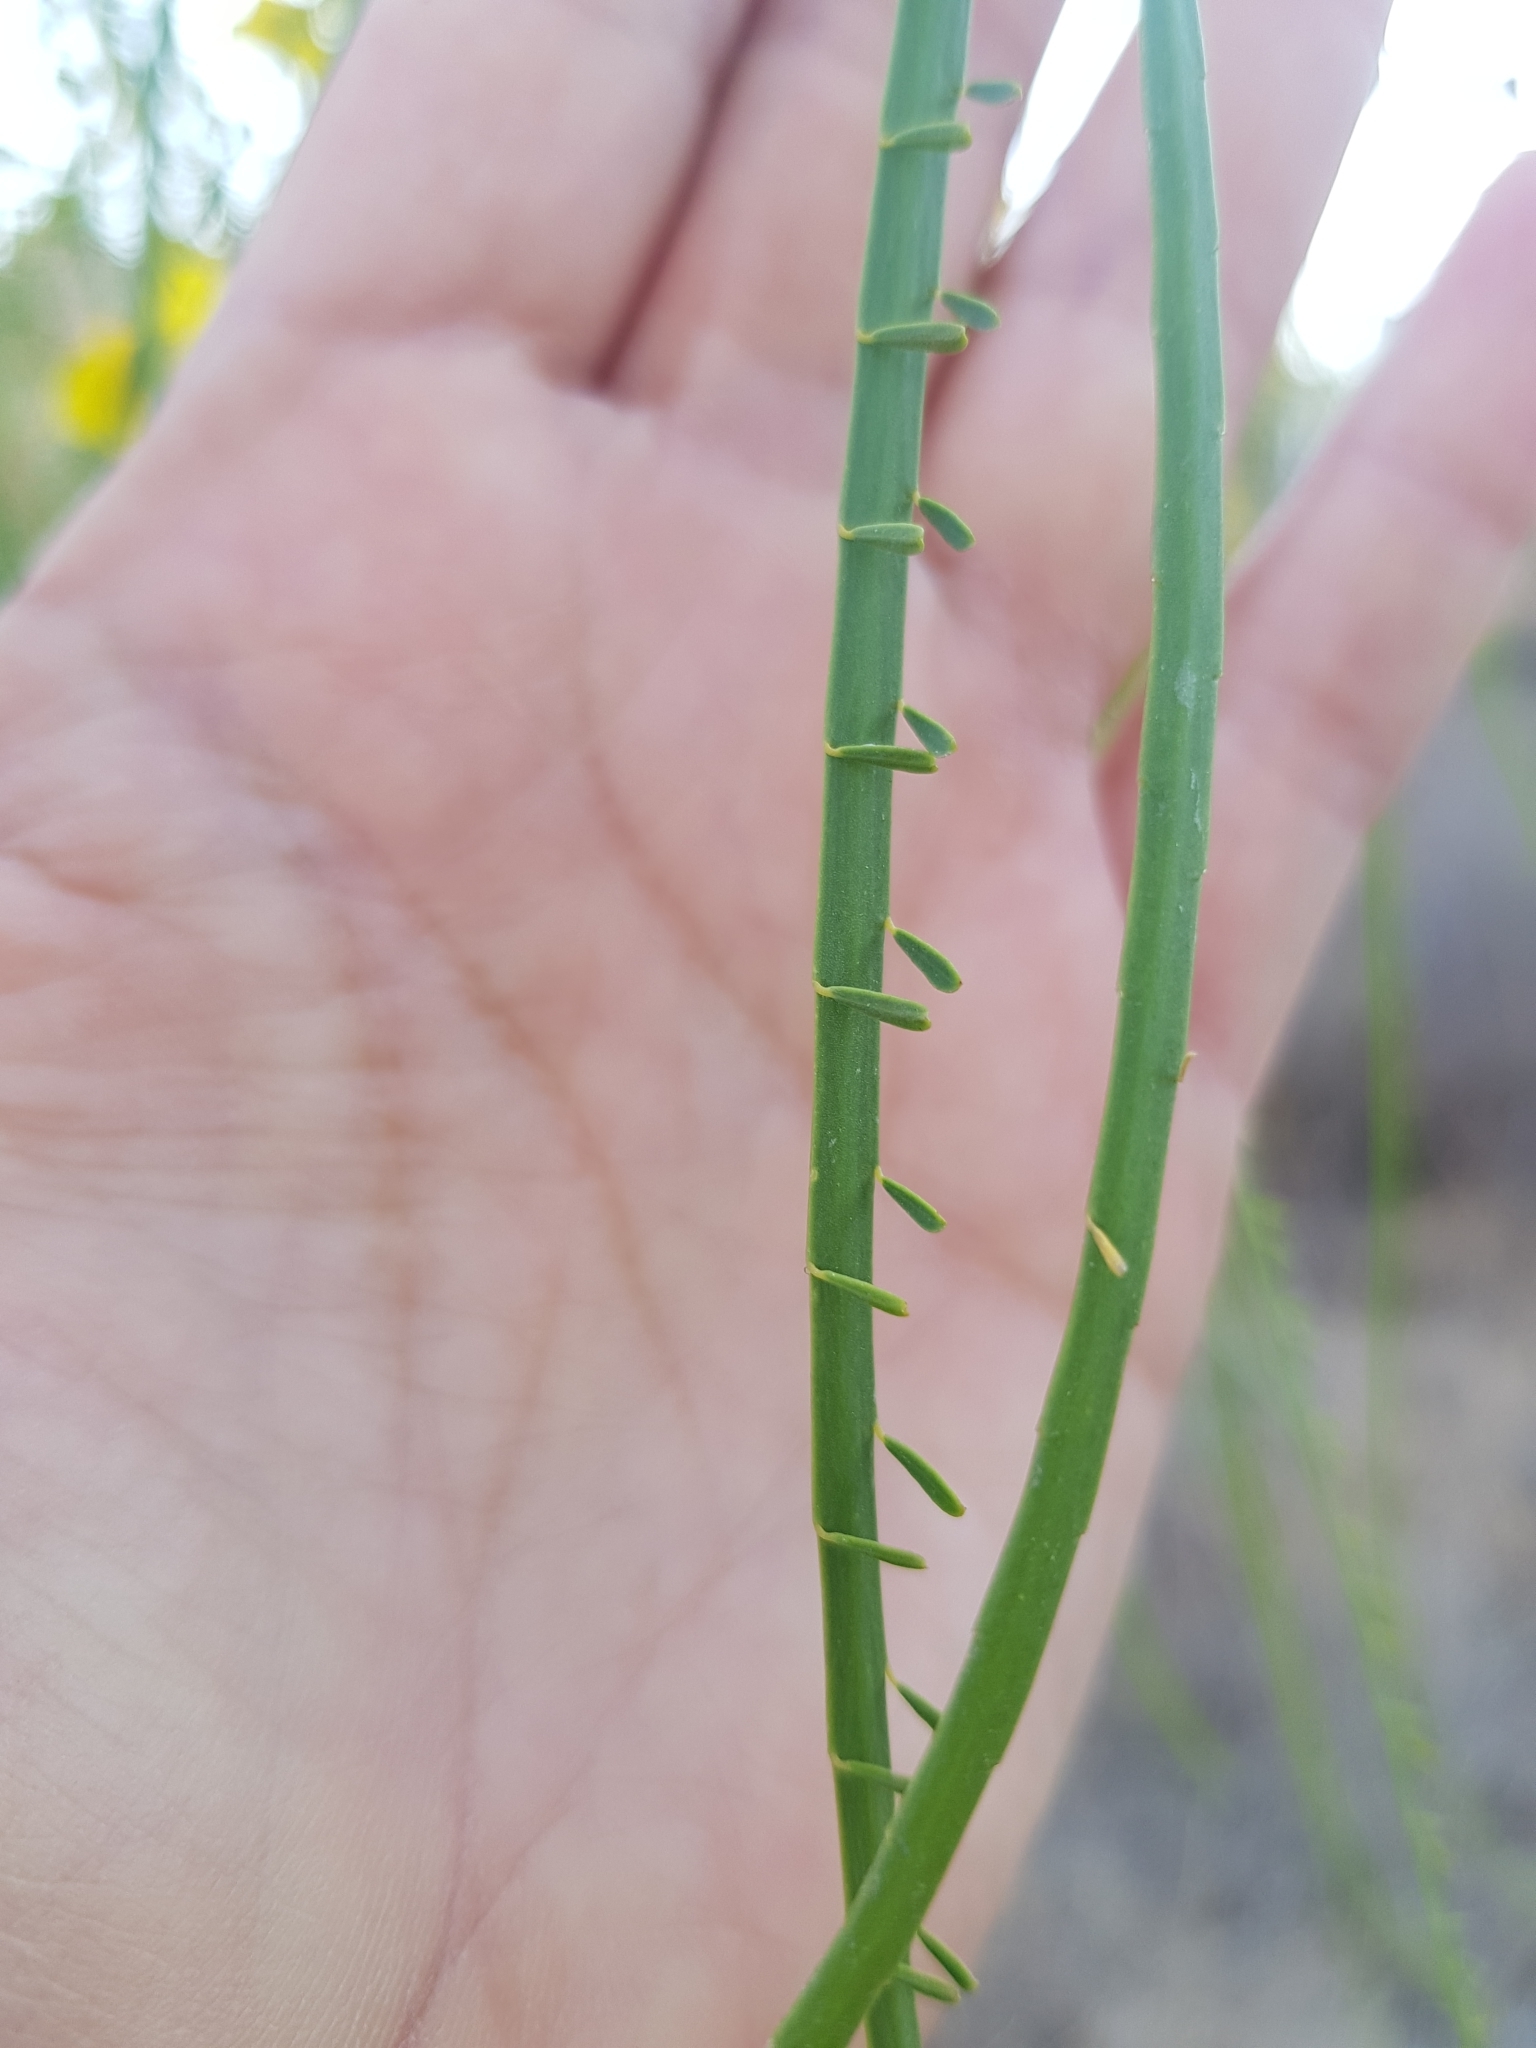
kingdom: Plantae
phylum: Tracheophyta
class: Magnoliopsida
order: Fabales
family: Fabaceae
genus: Parkinsonia
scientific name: Parkinsonia aculeata
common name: Jerusalem thorn
